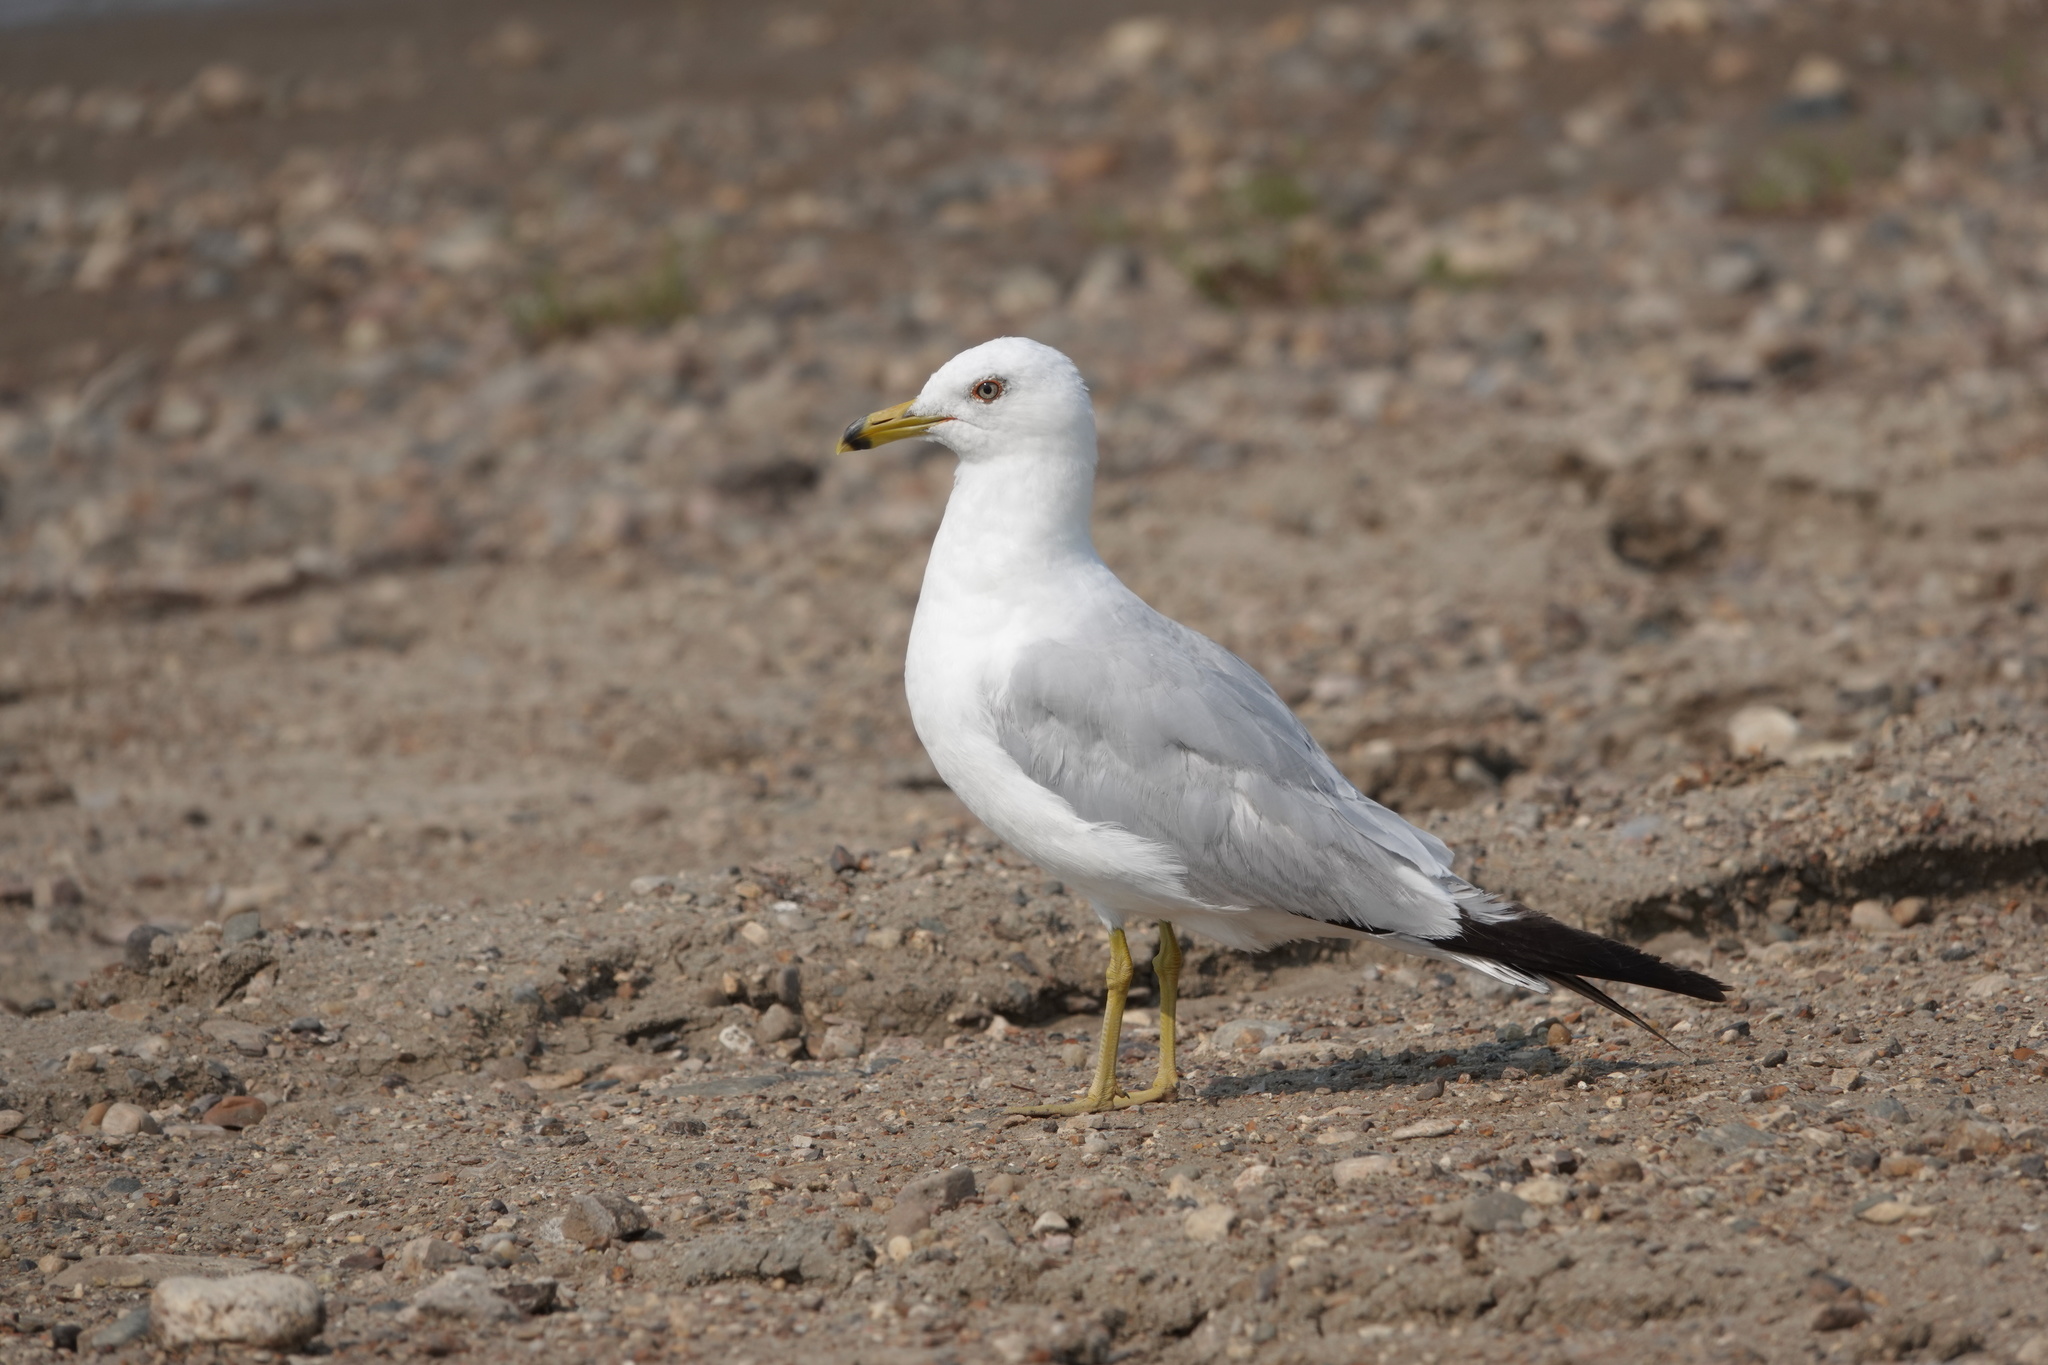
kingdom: Animalia
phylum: Chordata
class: Aves
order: Charadriiformes
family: Laridae
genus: Larus
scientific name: Larus delawarensis
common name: Ring-billed gull
